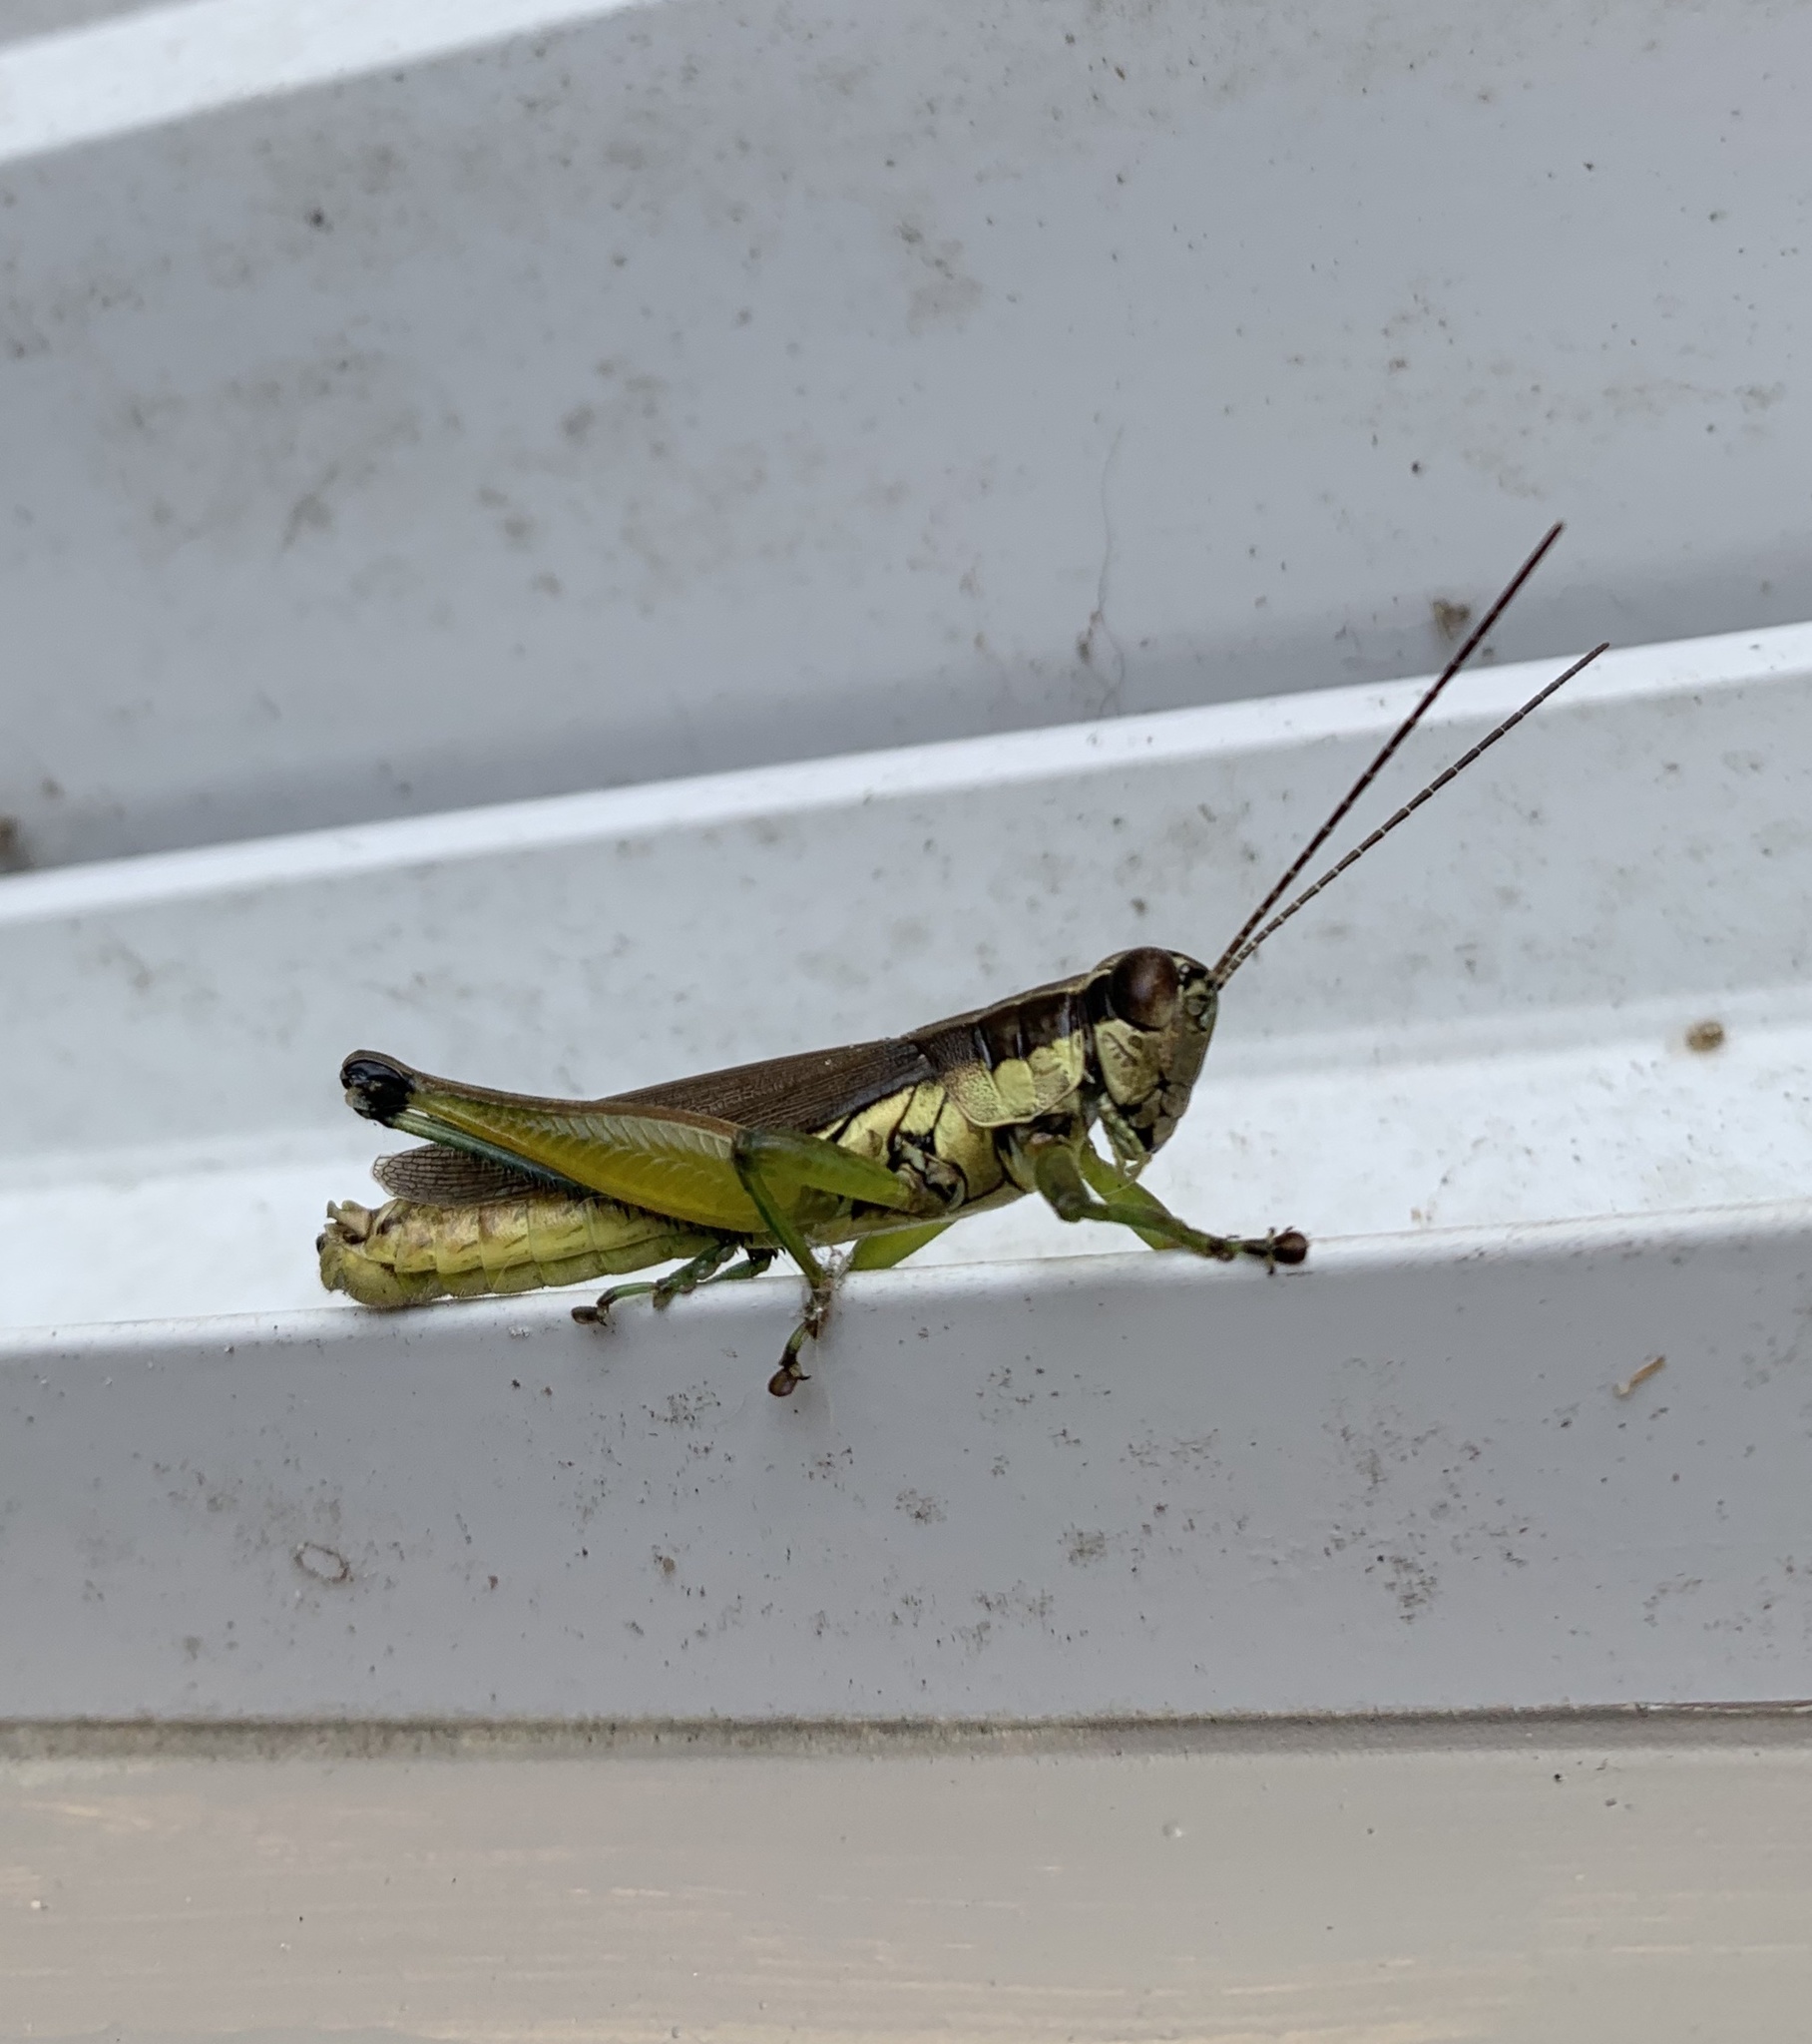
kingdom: Animalia
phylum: Arthropoda
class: Insecta
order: Orthoptera
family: Acrididae
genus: Paroxya
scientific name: Paroxya clavuligera
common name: Olive-green swamp grasshopper
